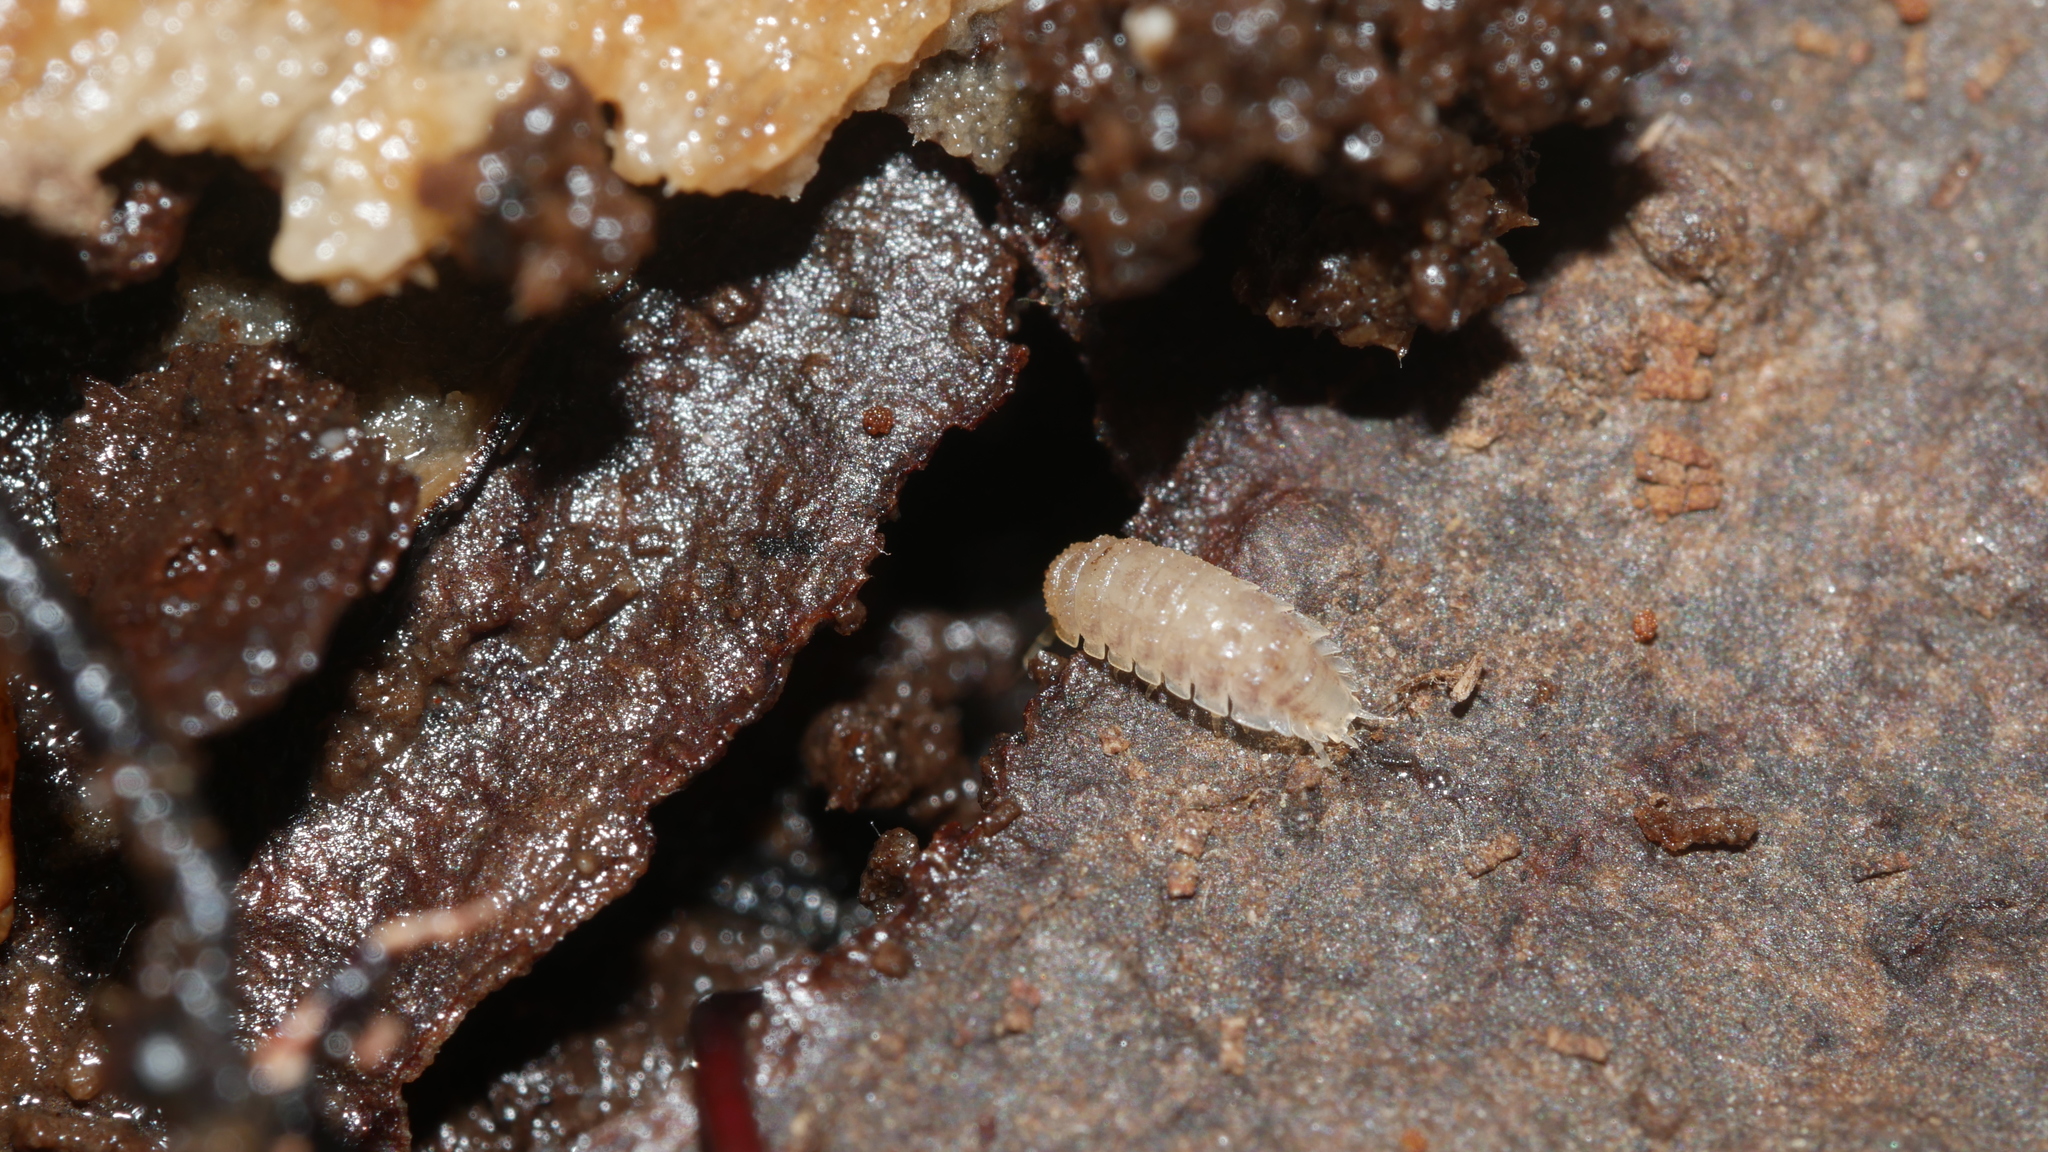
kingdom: Animalia
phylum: Arthropoda
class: Malacostraca
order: Isopoda
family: Trichoniscidae
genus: Haplophthalmus
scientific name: Haplophthalmus danicus
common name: Pillbug
